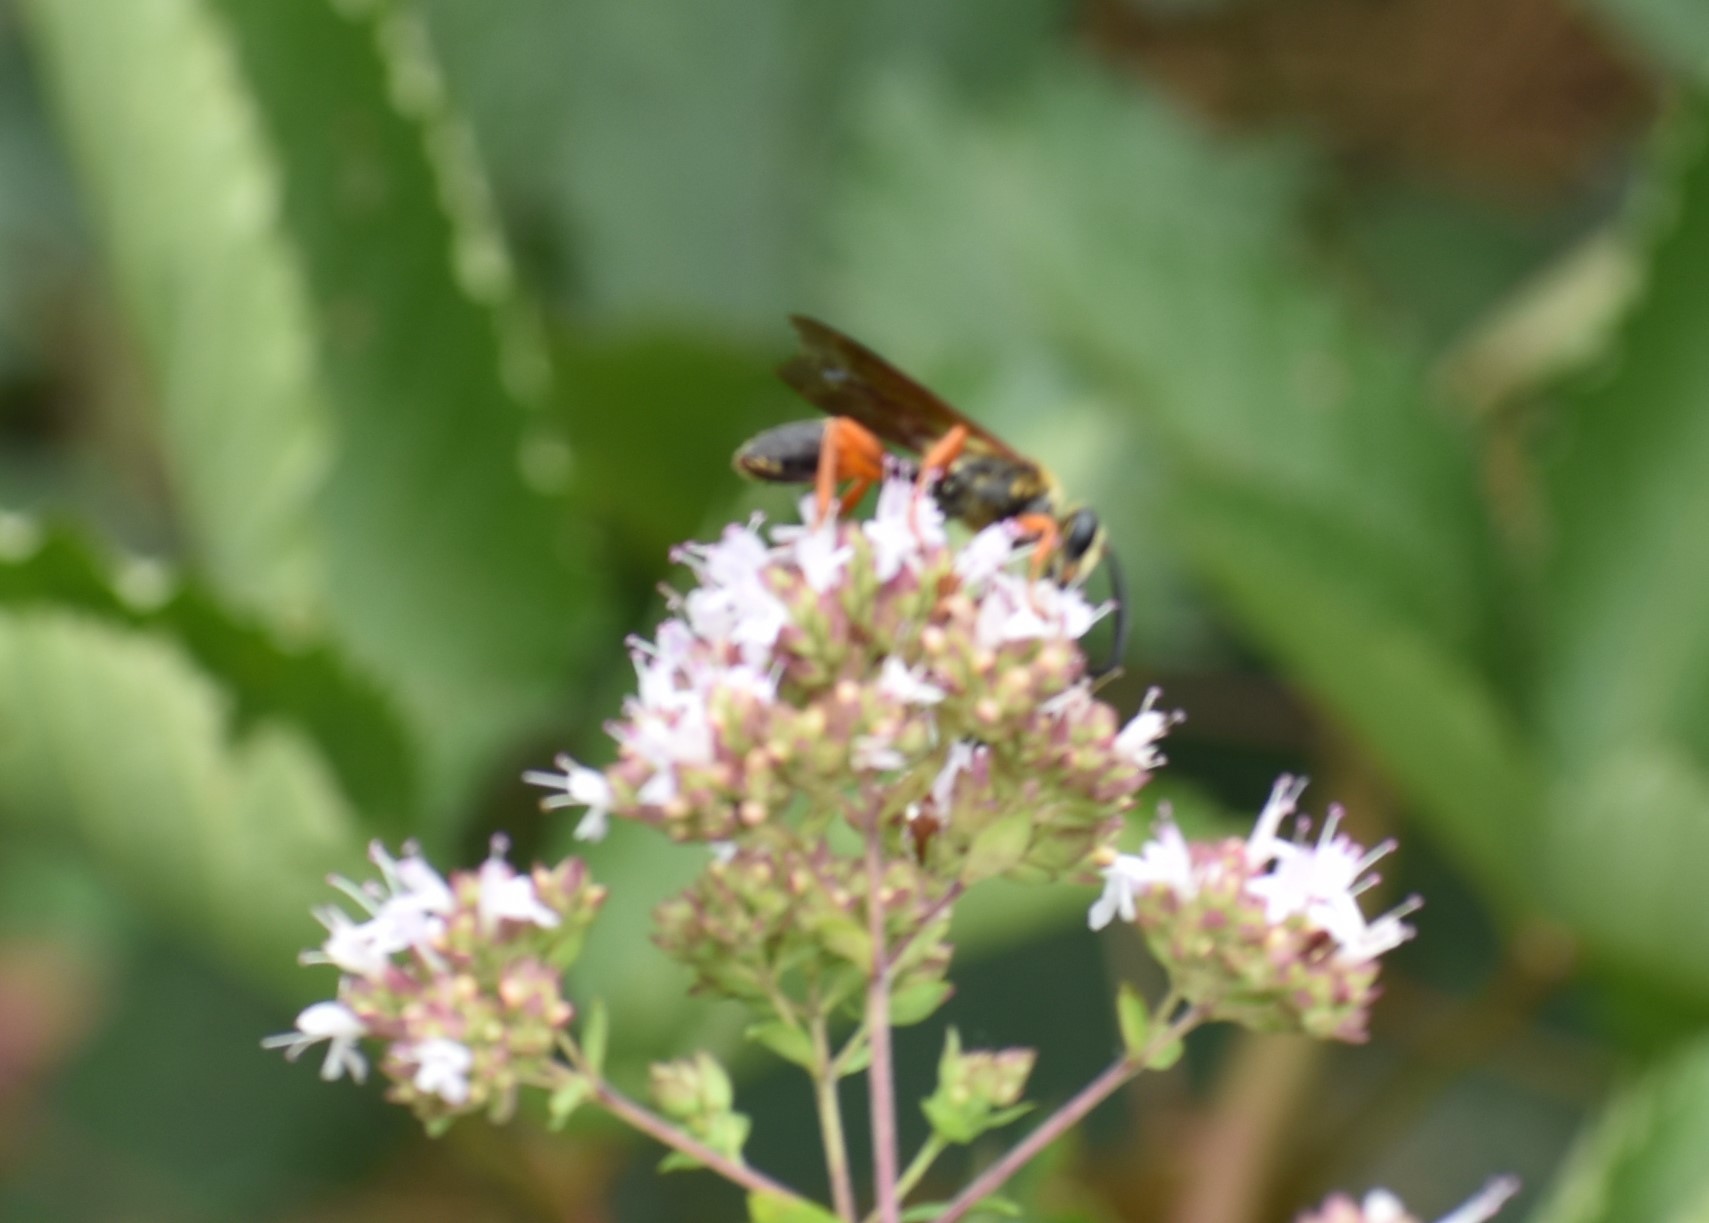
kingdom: Animalia
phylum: Arthropoda
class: Insecta
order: Hymenoptera
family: Sphecidae
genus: Sphex
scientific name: Sphex ichneumoneus
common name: Great golden digger wasp
